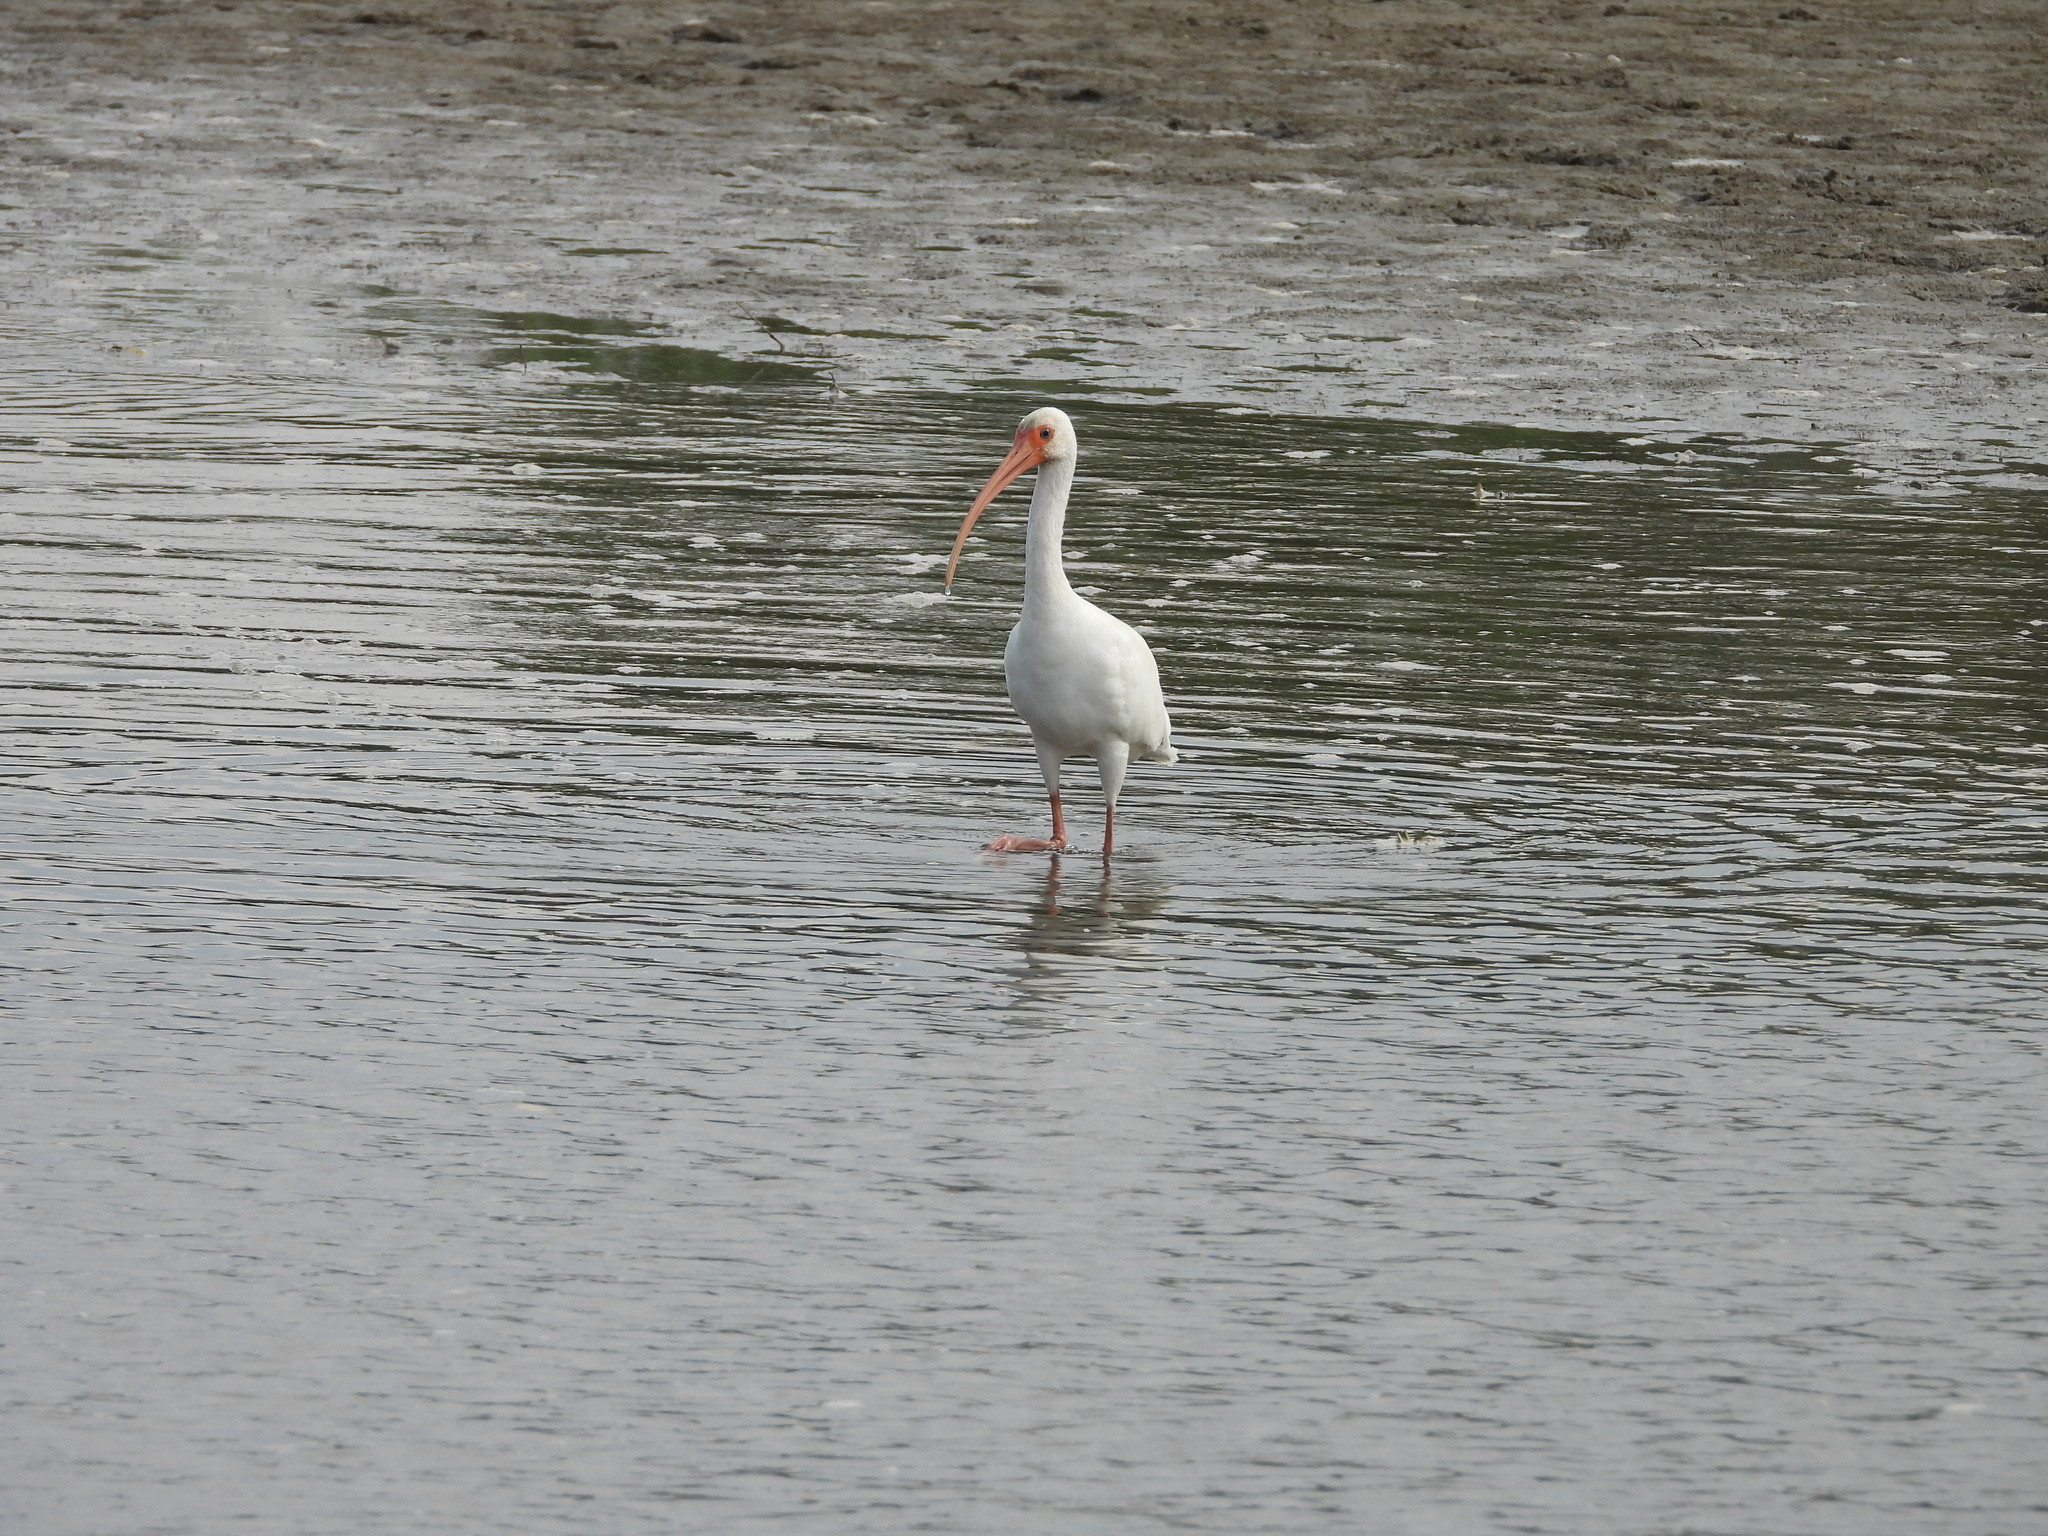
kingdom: Animalia
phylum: Chordata
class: Aves
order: Pelecaniformes
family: Threskiornithidae
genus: Eudocimus
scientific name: Eudocimus albus
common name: White ibis
